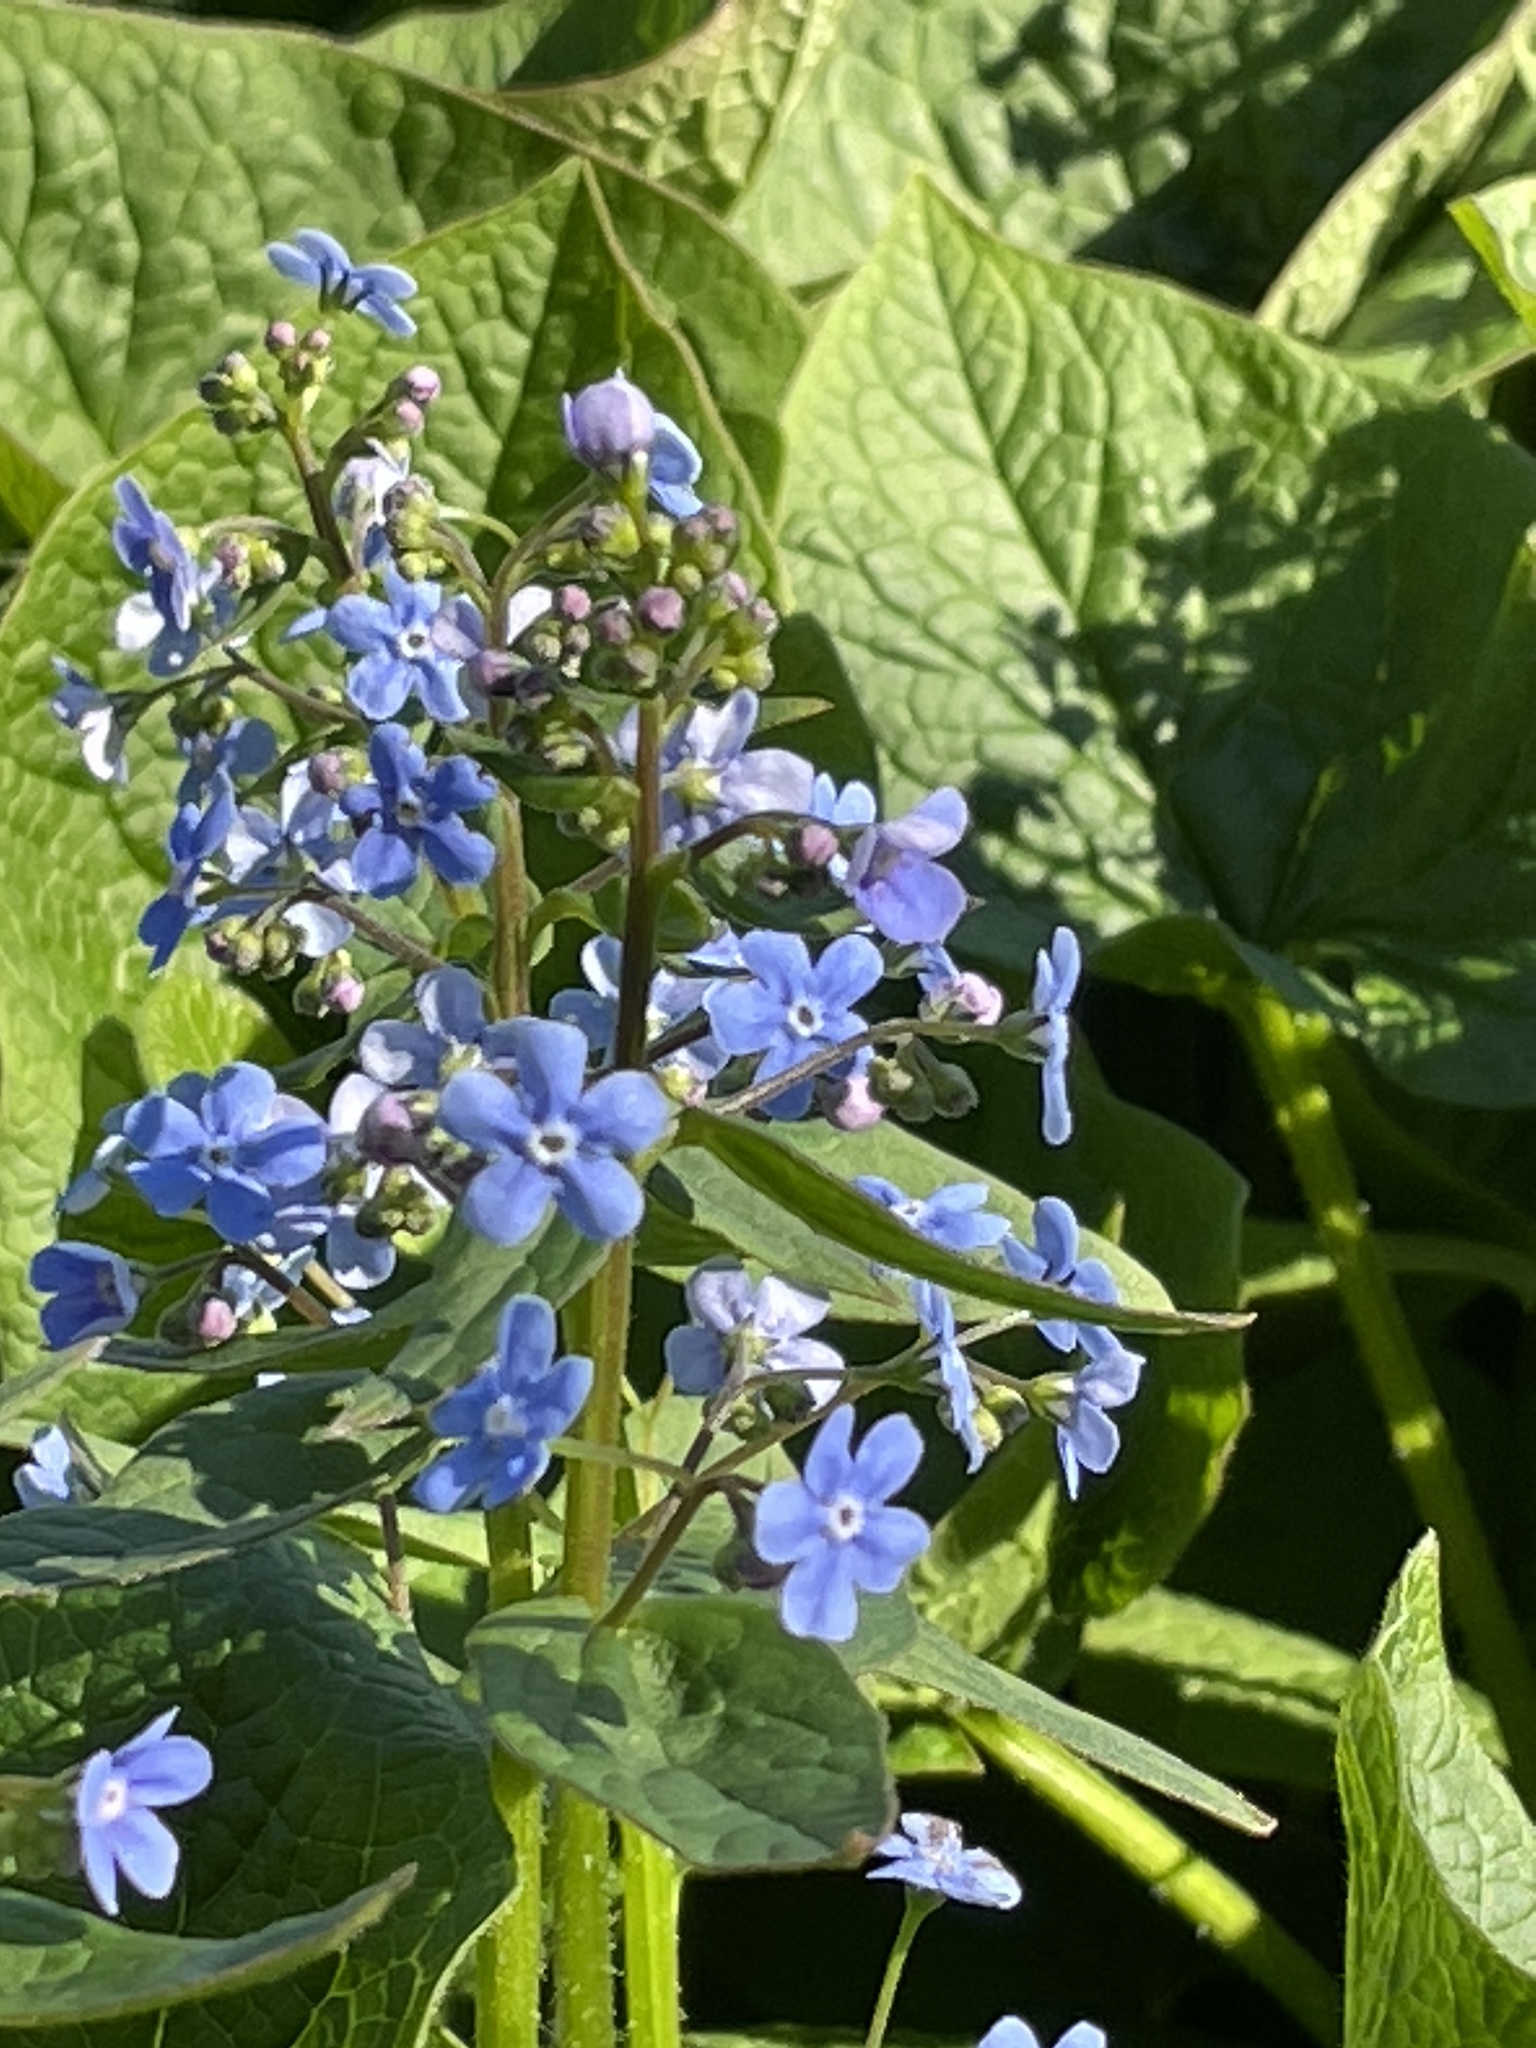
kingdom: Plantae
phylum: Tracheophyta
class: Magnoliopsida
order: Boraginales
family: Boraginaceae
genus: Brunnera
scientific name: Brunnera sibirica
